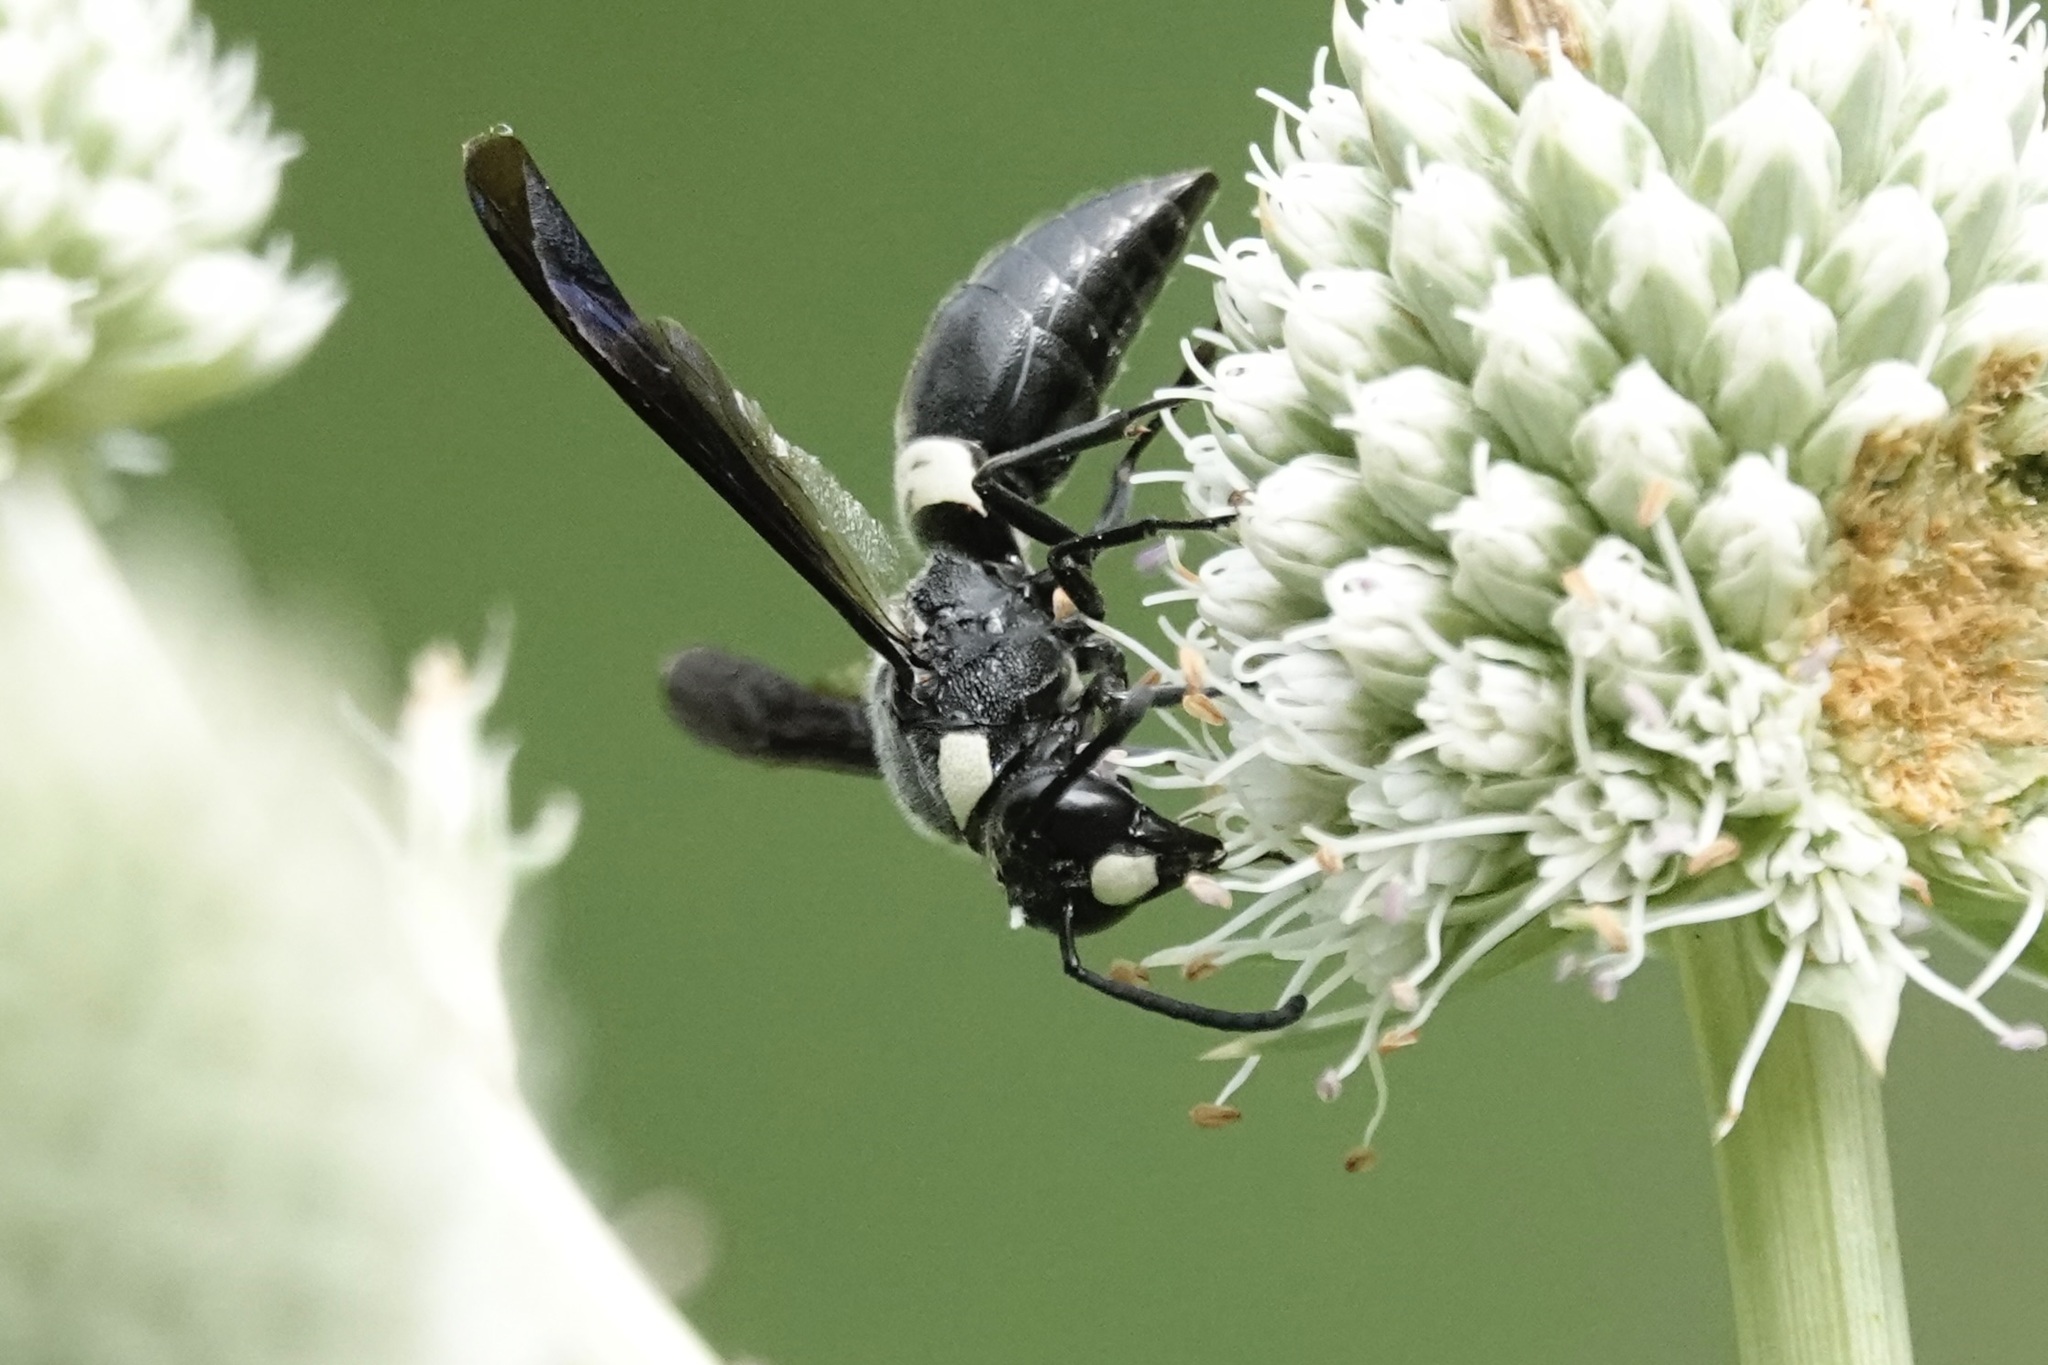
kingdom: Animalia
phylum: Arthropoda
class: Insecta
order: Hymenoptera
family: Eumenidae
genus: Monobia
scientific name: Monobia quadridens
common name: Four-toothed mason wasp
